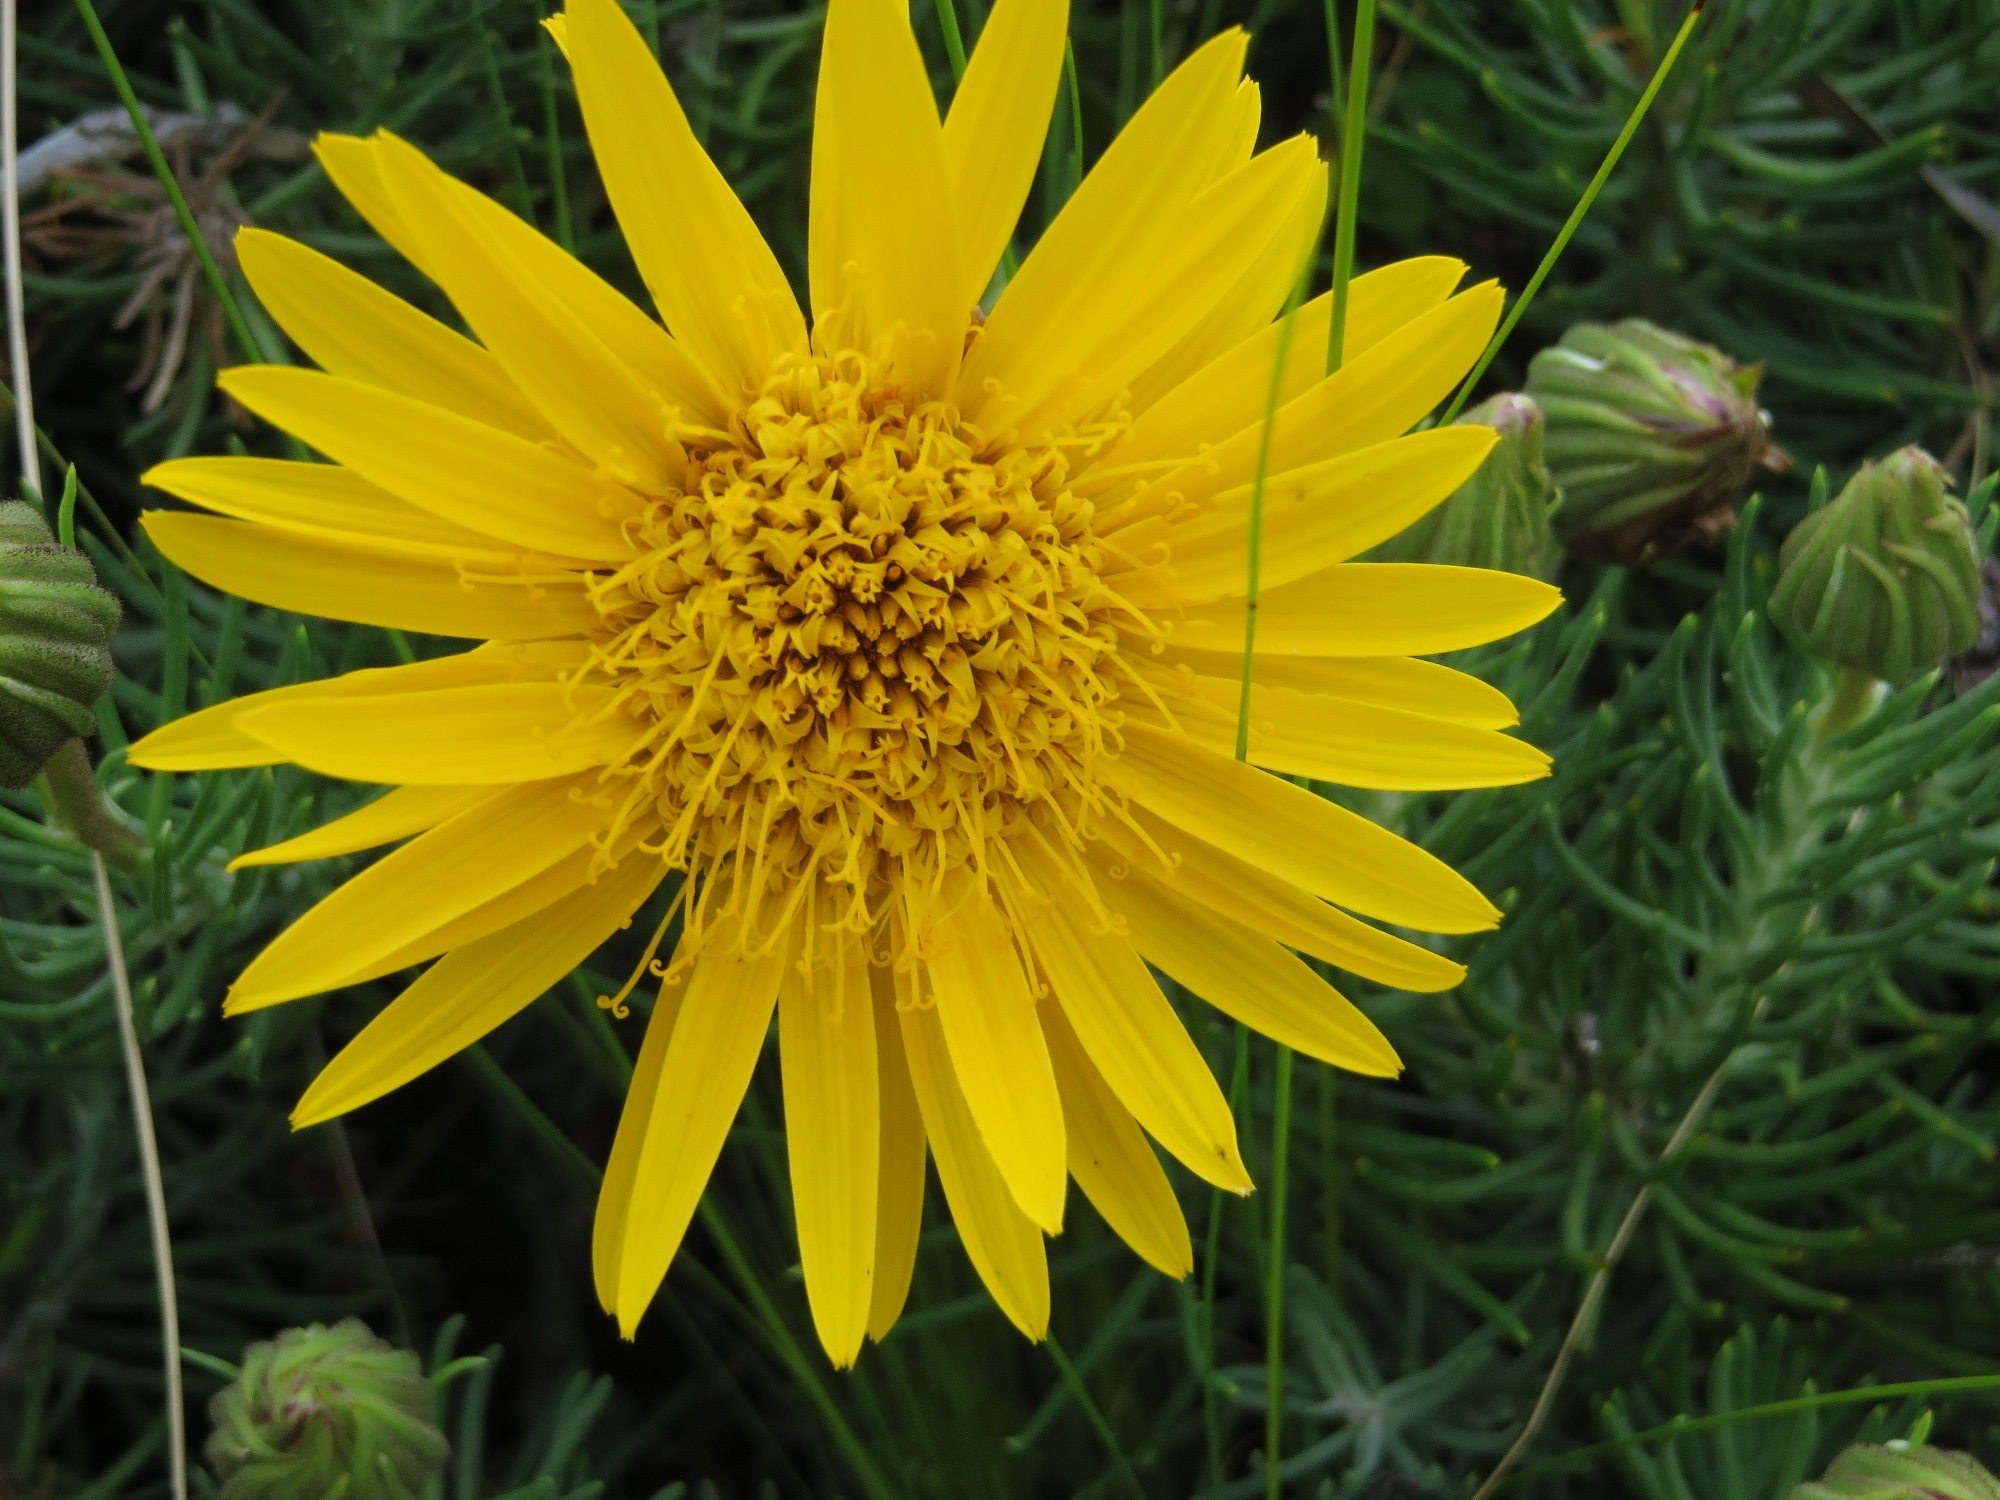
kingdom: Plantae
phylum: Tracheophyta
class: Magnoliopsida
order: Asterales
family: Asteraceae
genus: Heterolepis
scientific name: Heterolepis aliena
